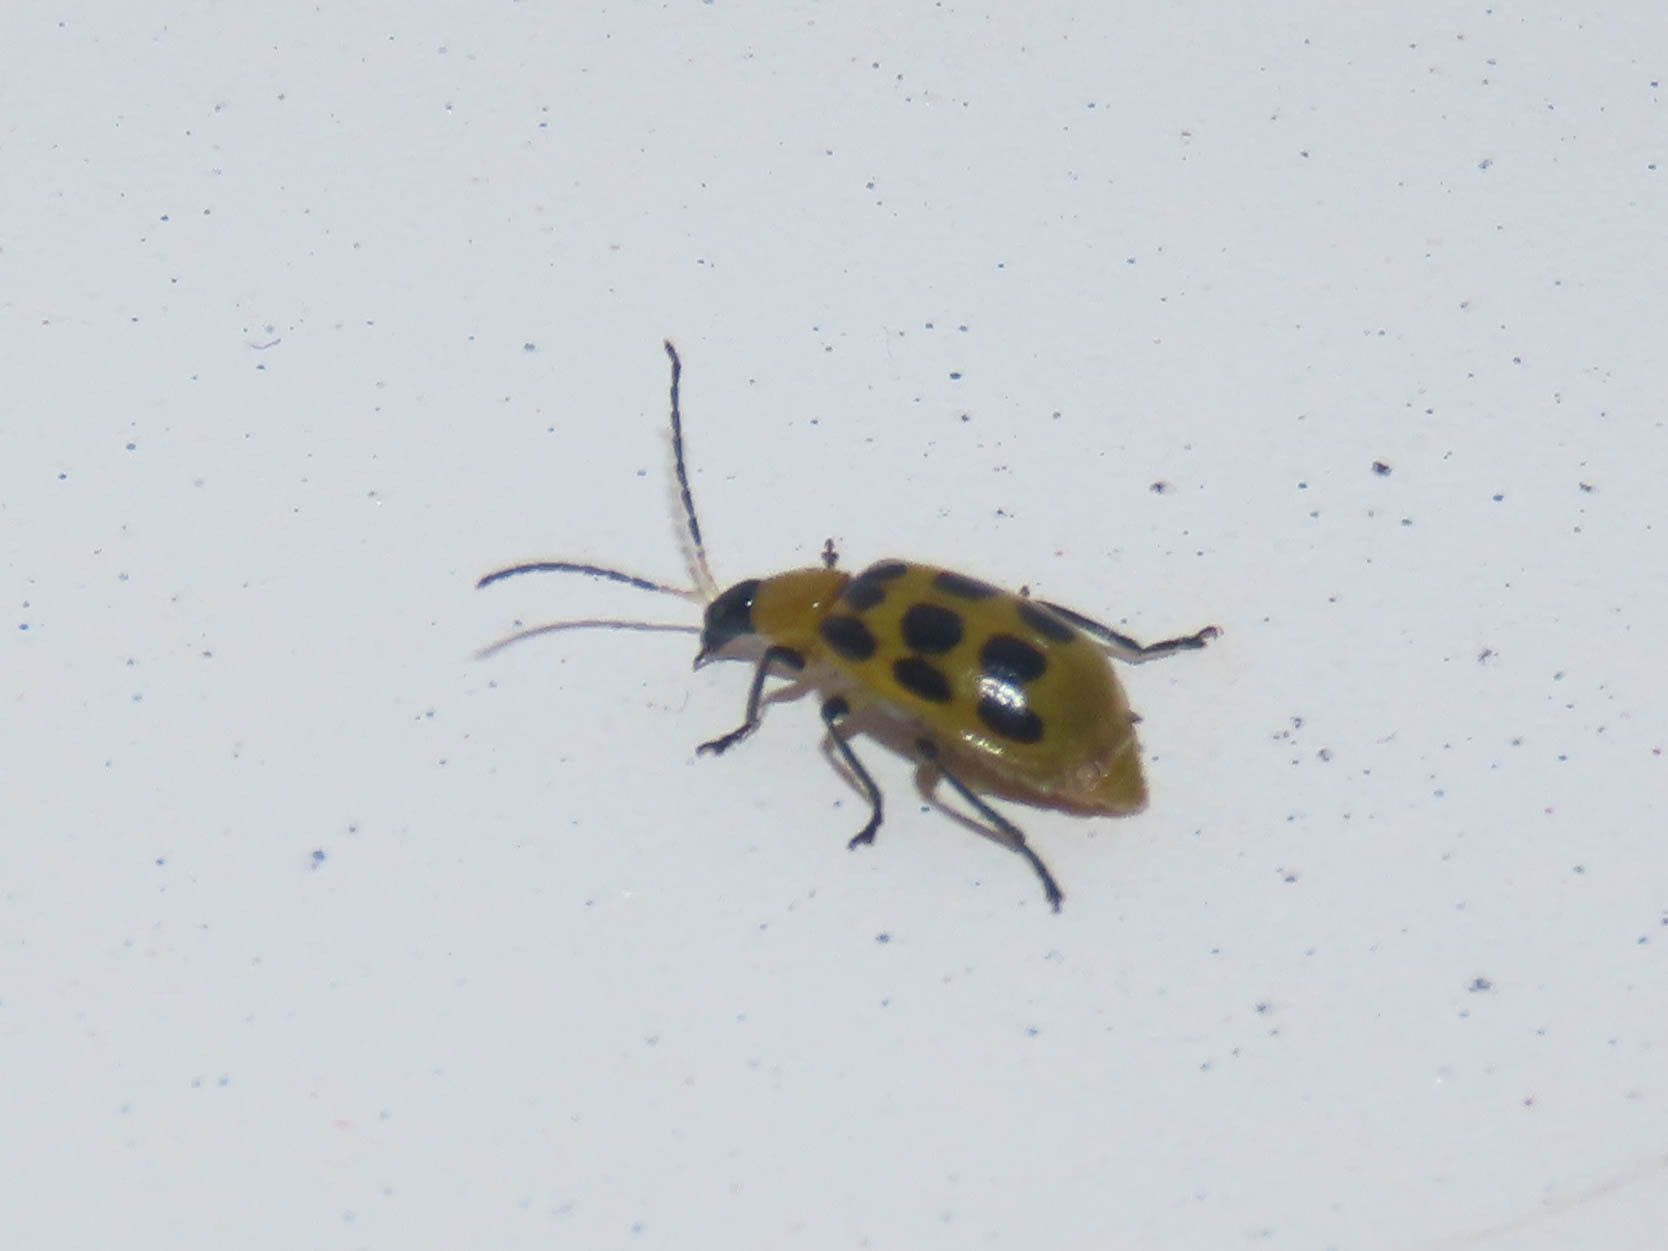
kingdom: Animalia
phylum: Arthropoda
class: Insecta
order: Coleoptera
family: Chrysomelidae
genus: Diabrotica
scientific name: Diabrotica undecimpunctata
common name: Spotted cucumber beetle
